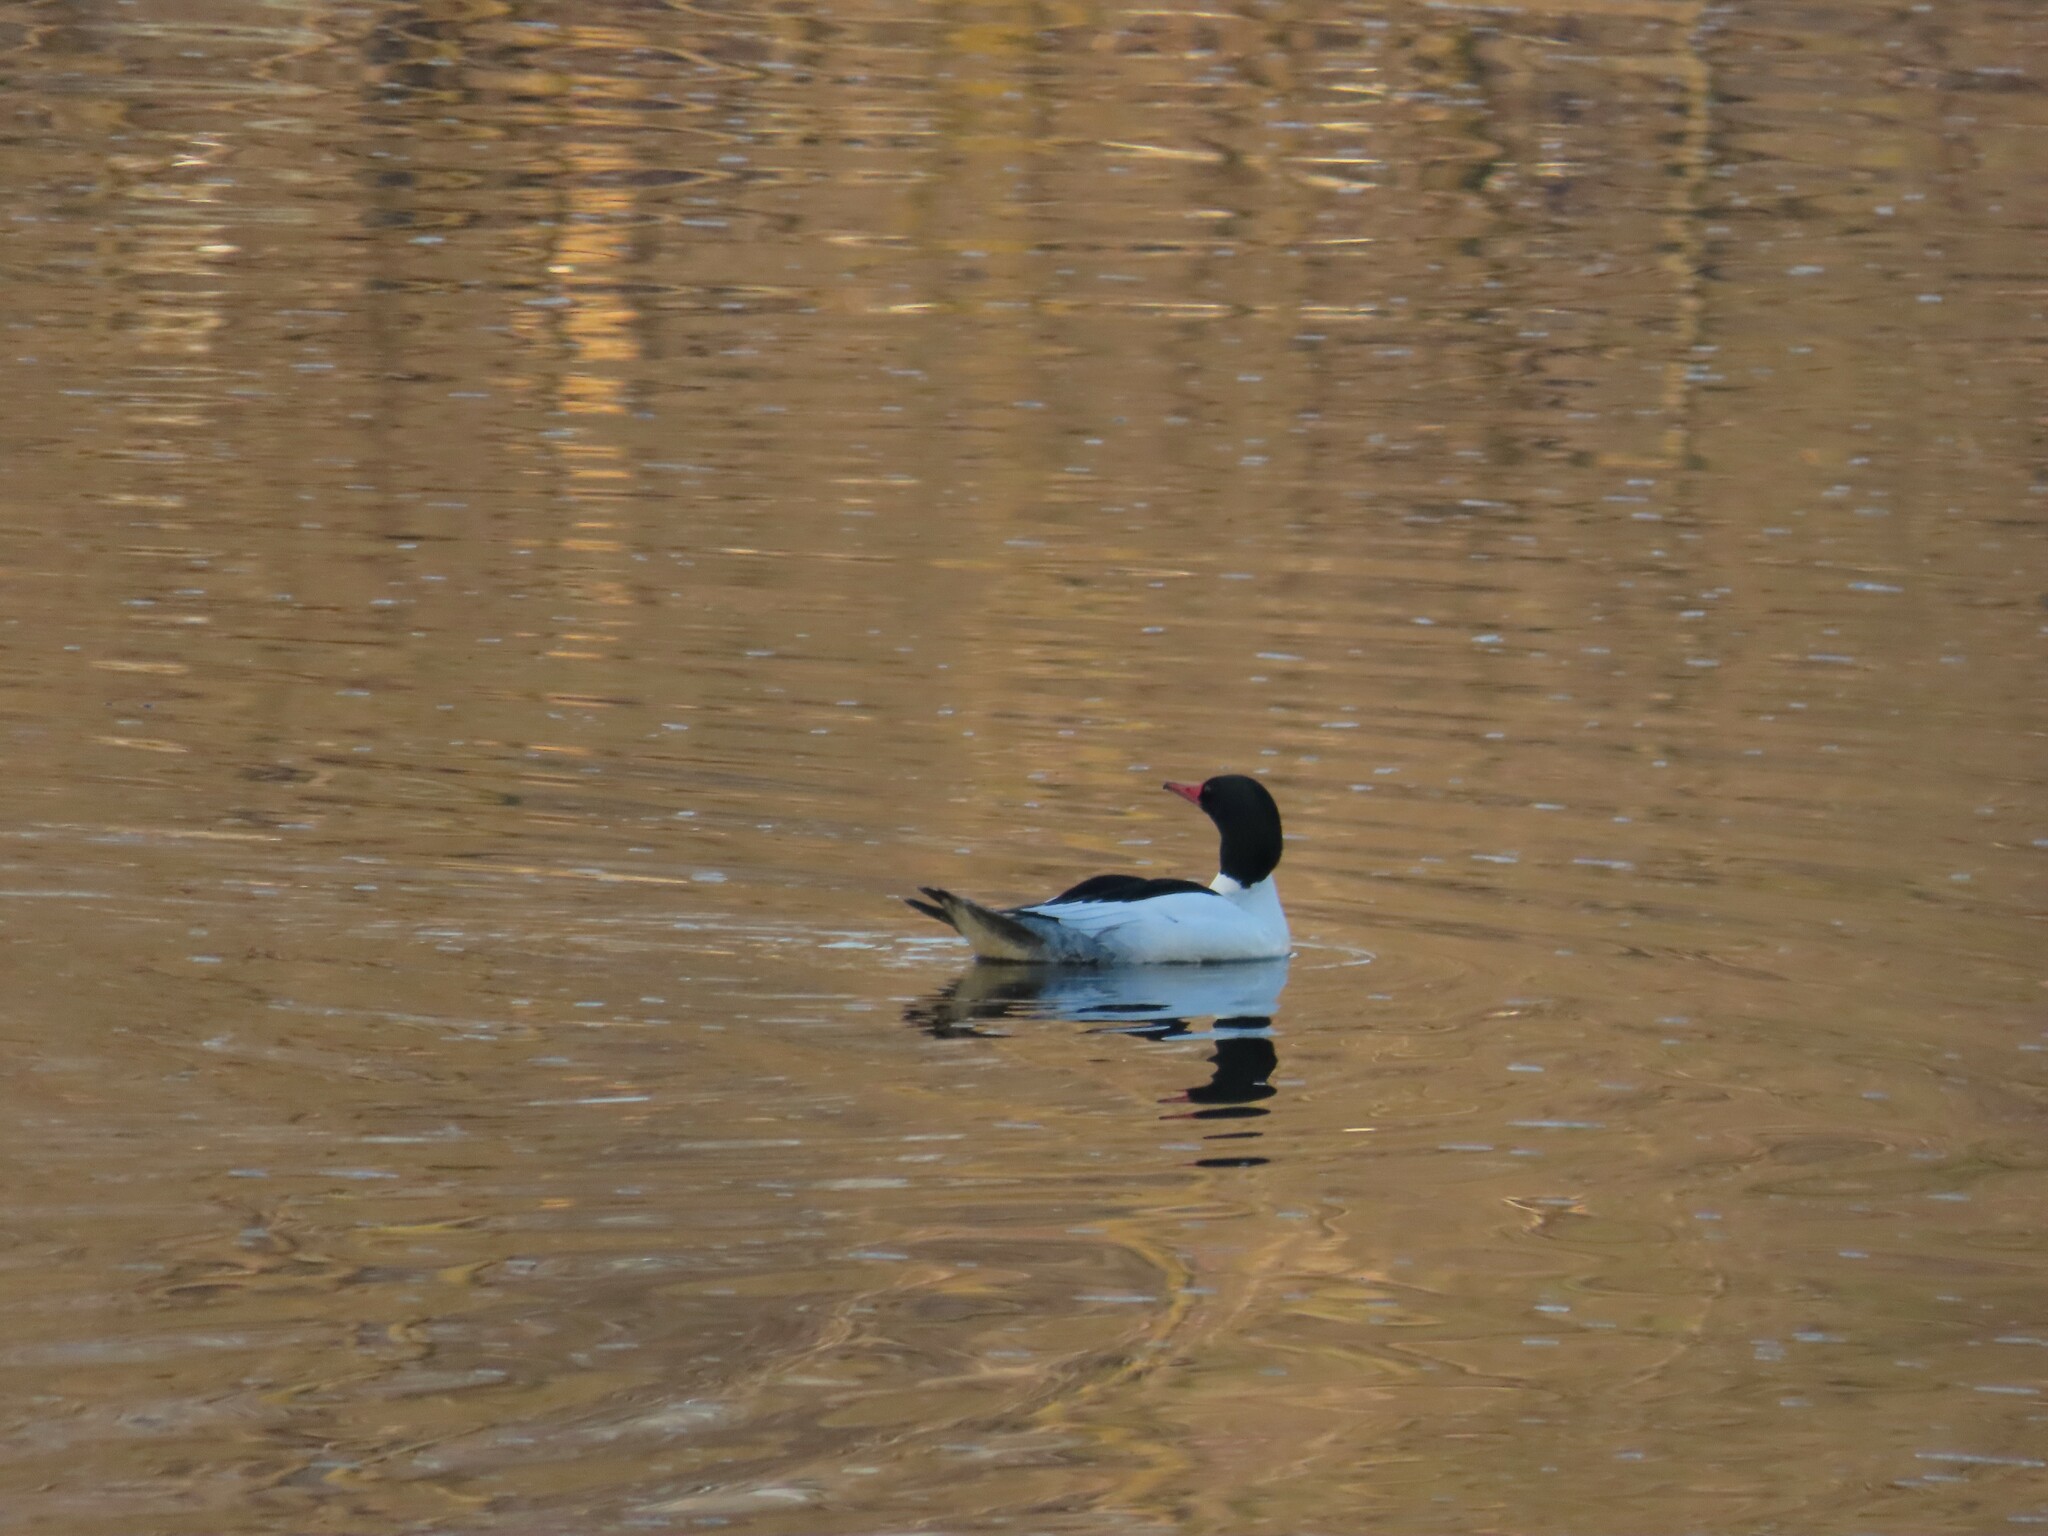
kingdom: Animalia
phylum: Chordata
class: Aves
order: Anseriformes
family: Anatidae
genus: Mergus
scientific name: Mergus merganser
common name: Common merganser
